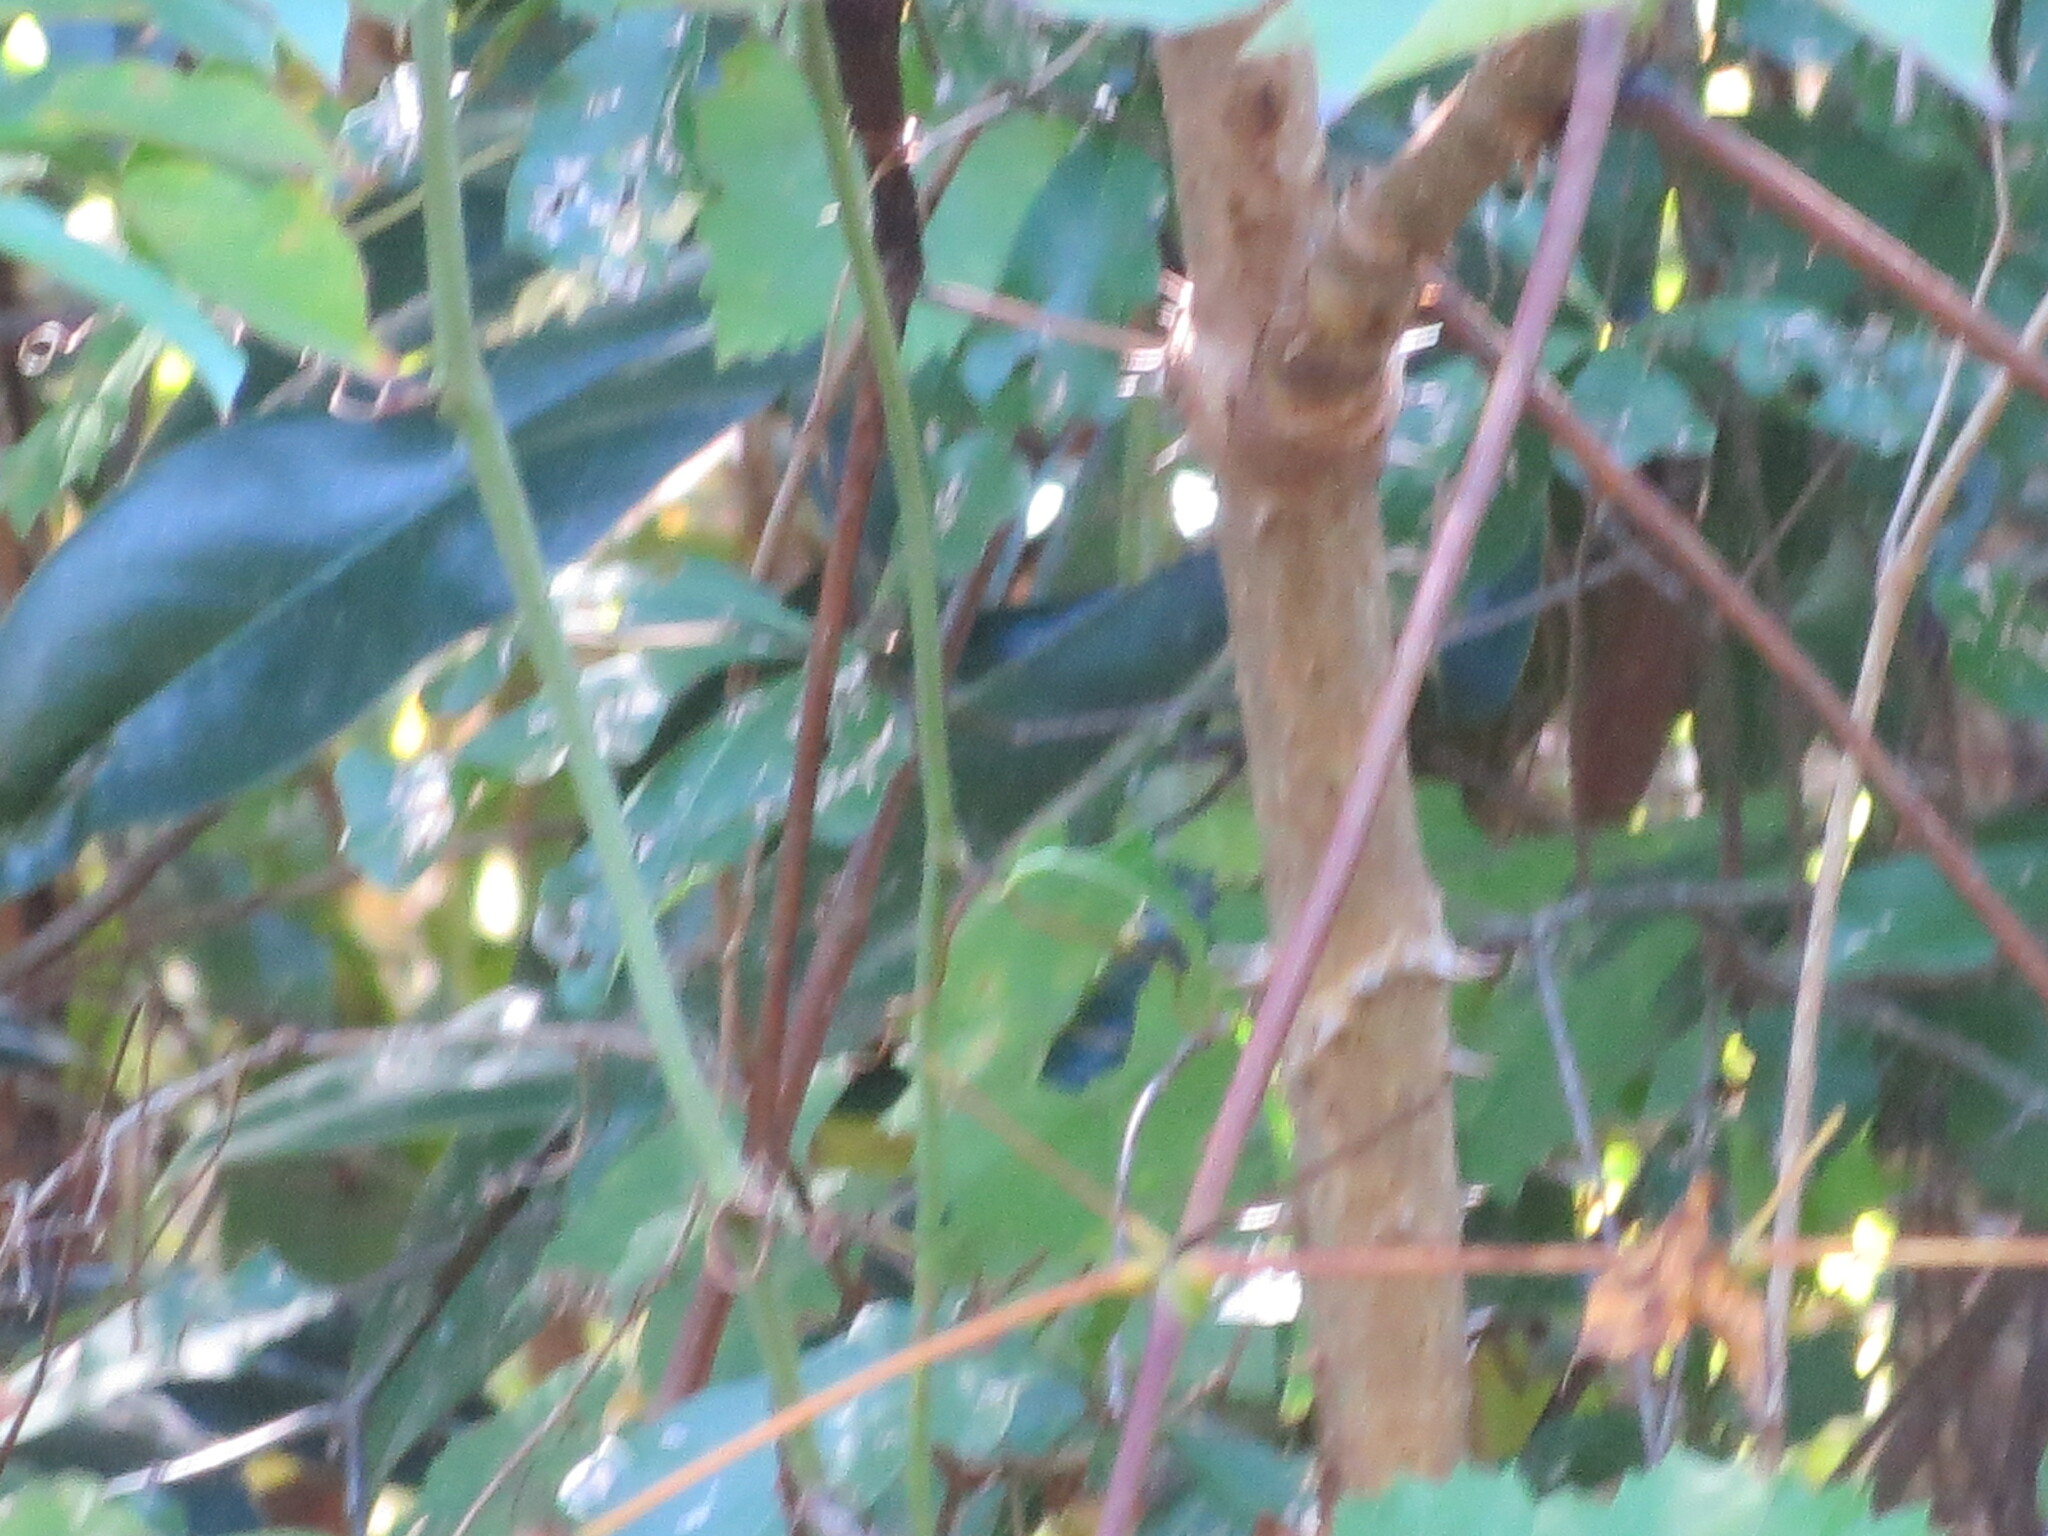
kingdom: Plantae
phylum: Tracheophyta
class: Magnoliopsida
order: Apiales
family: Araliaceae
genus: Aralia
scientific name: Aralia spinosa
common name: Hercules'-club
